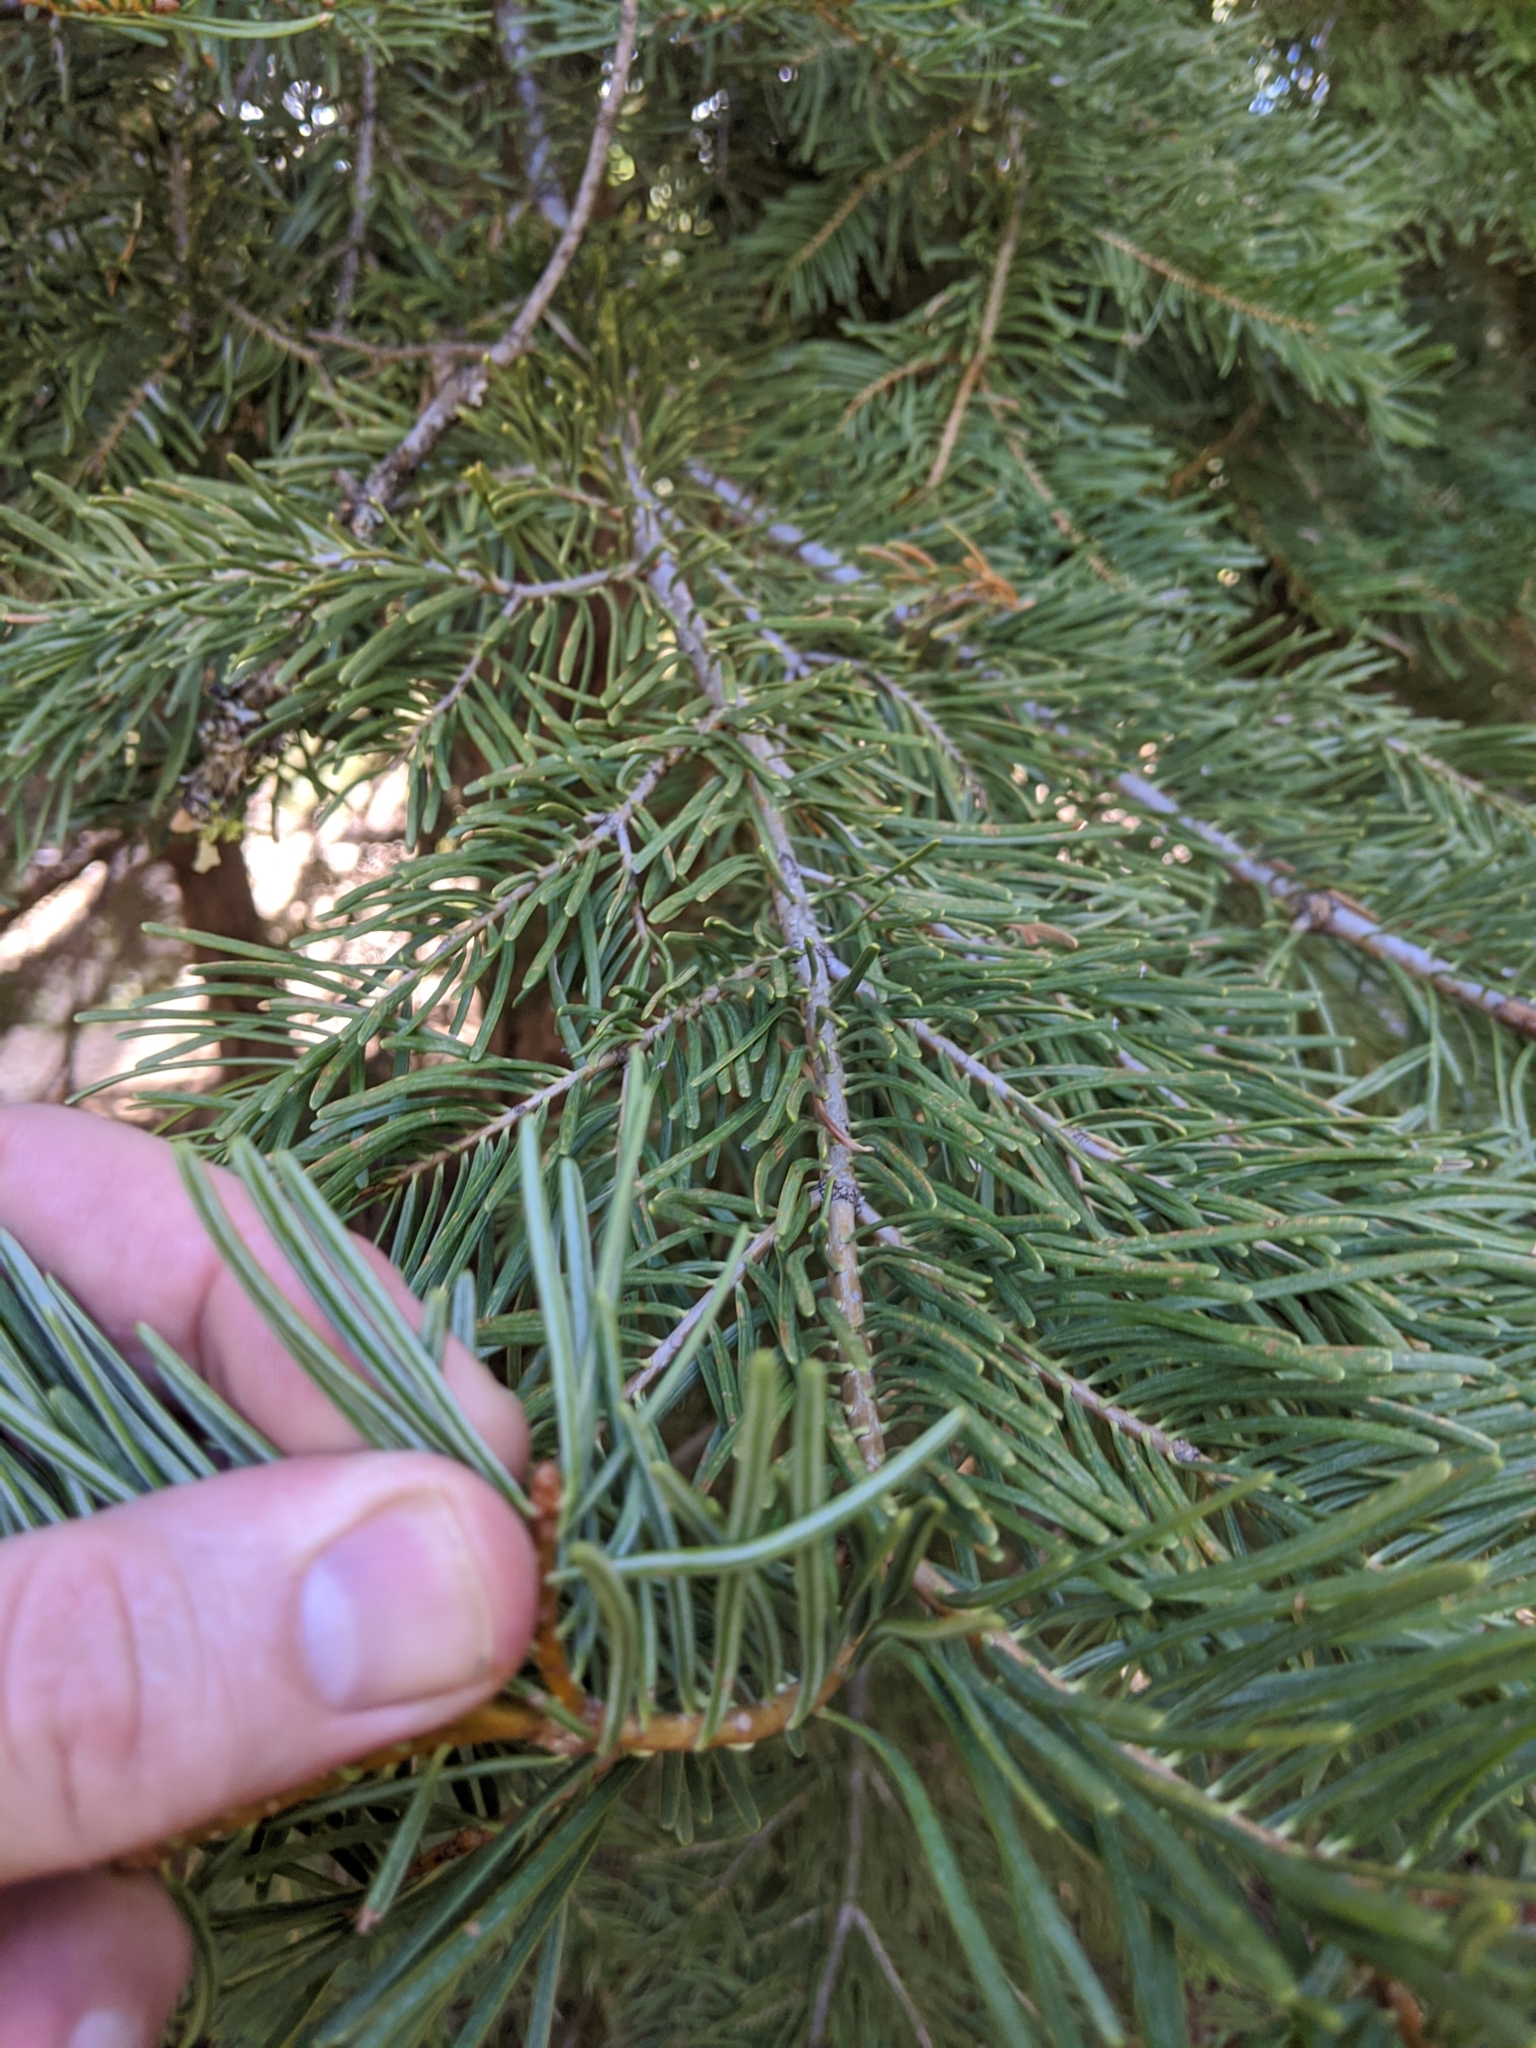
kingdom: Plantae
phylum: Tracheophyta
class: Pinopsida
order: Pinales
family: Pinaceae
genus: Abies
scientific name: Abies concolor
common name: Colorado fir
